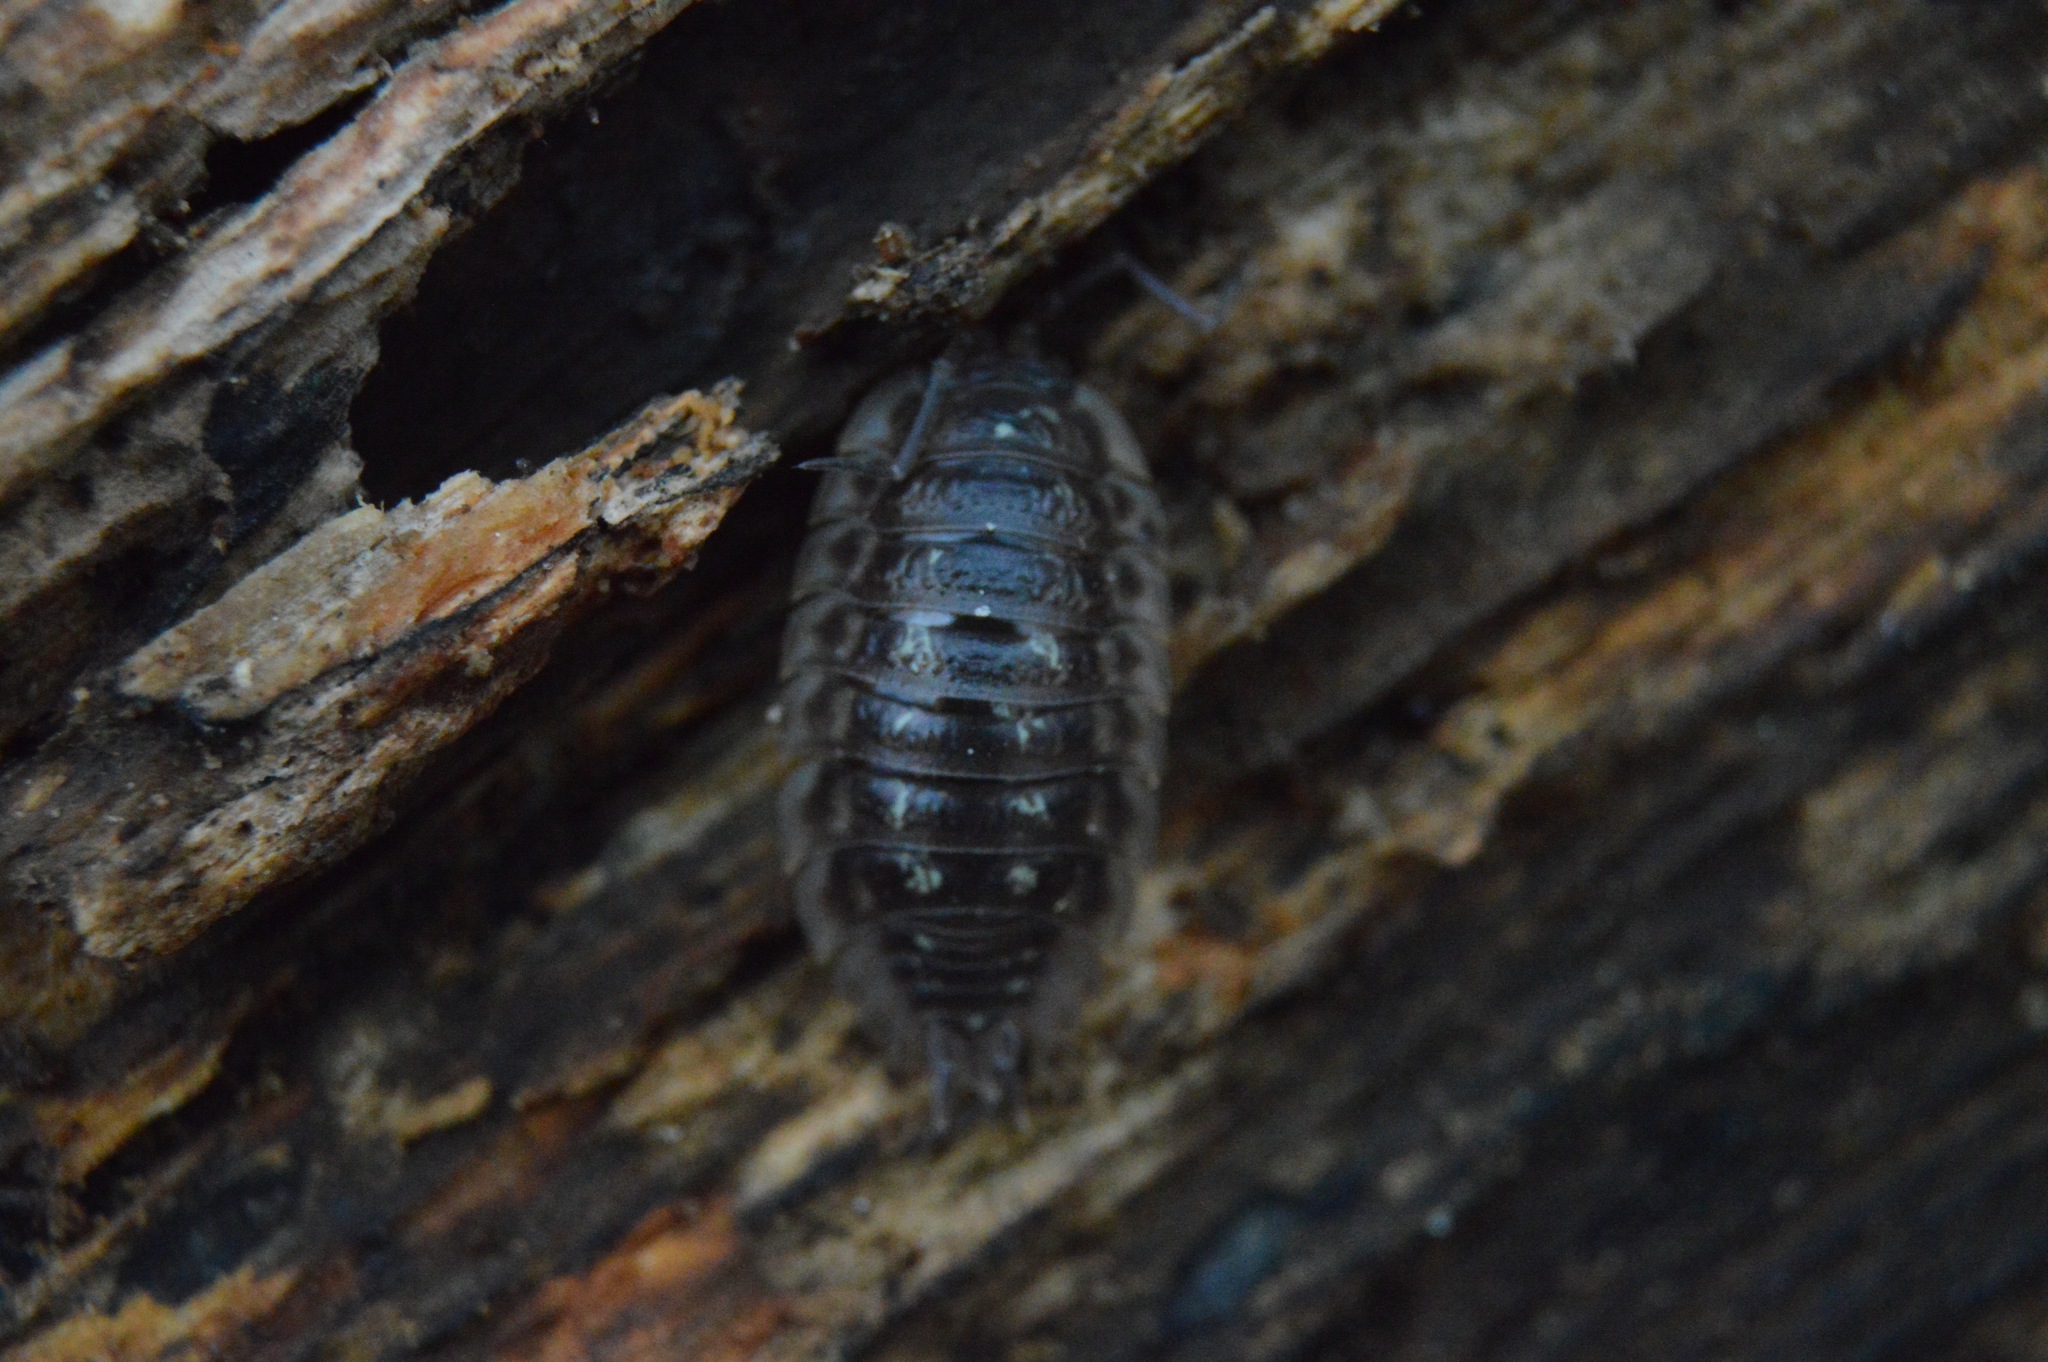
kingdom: Animalia
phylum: Arthropoda
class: Malacostraca
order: Isopoda
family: Oniscidae
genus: Oniscus
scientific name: Oniscus asellus
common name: Common shiny woodlouse
